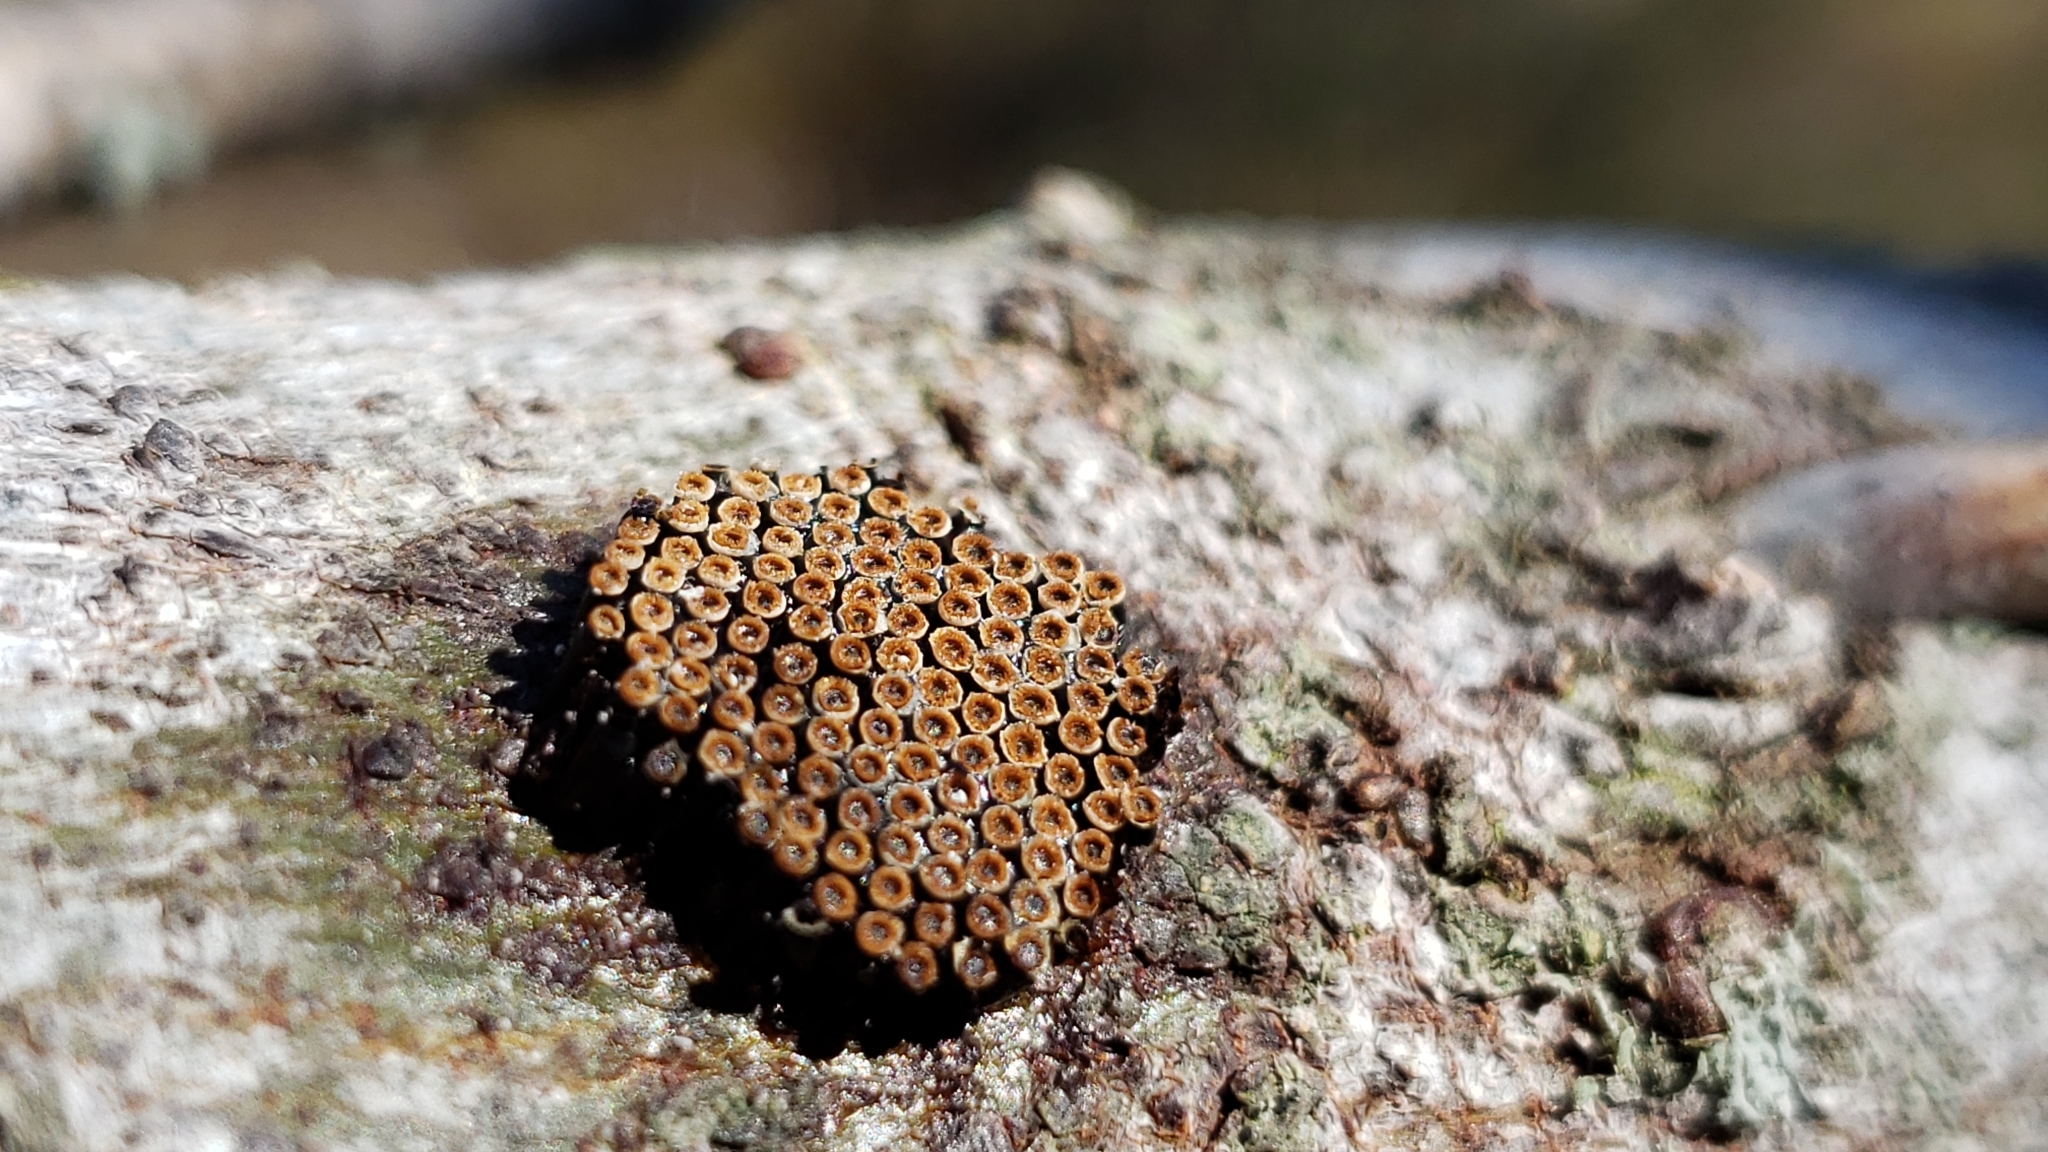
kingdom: Animalia
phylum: Arthropoda
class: Insecta
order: Hemiptera
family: Reduviidae
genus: Arilus
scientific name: Arilus cristatus
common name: North american wheel bug
